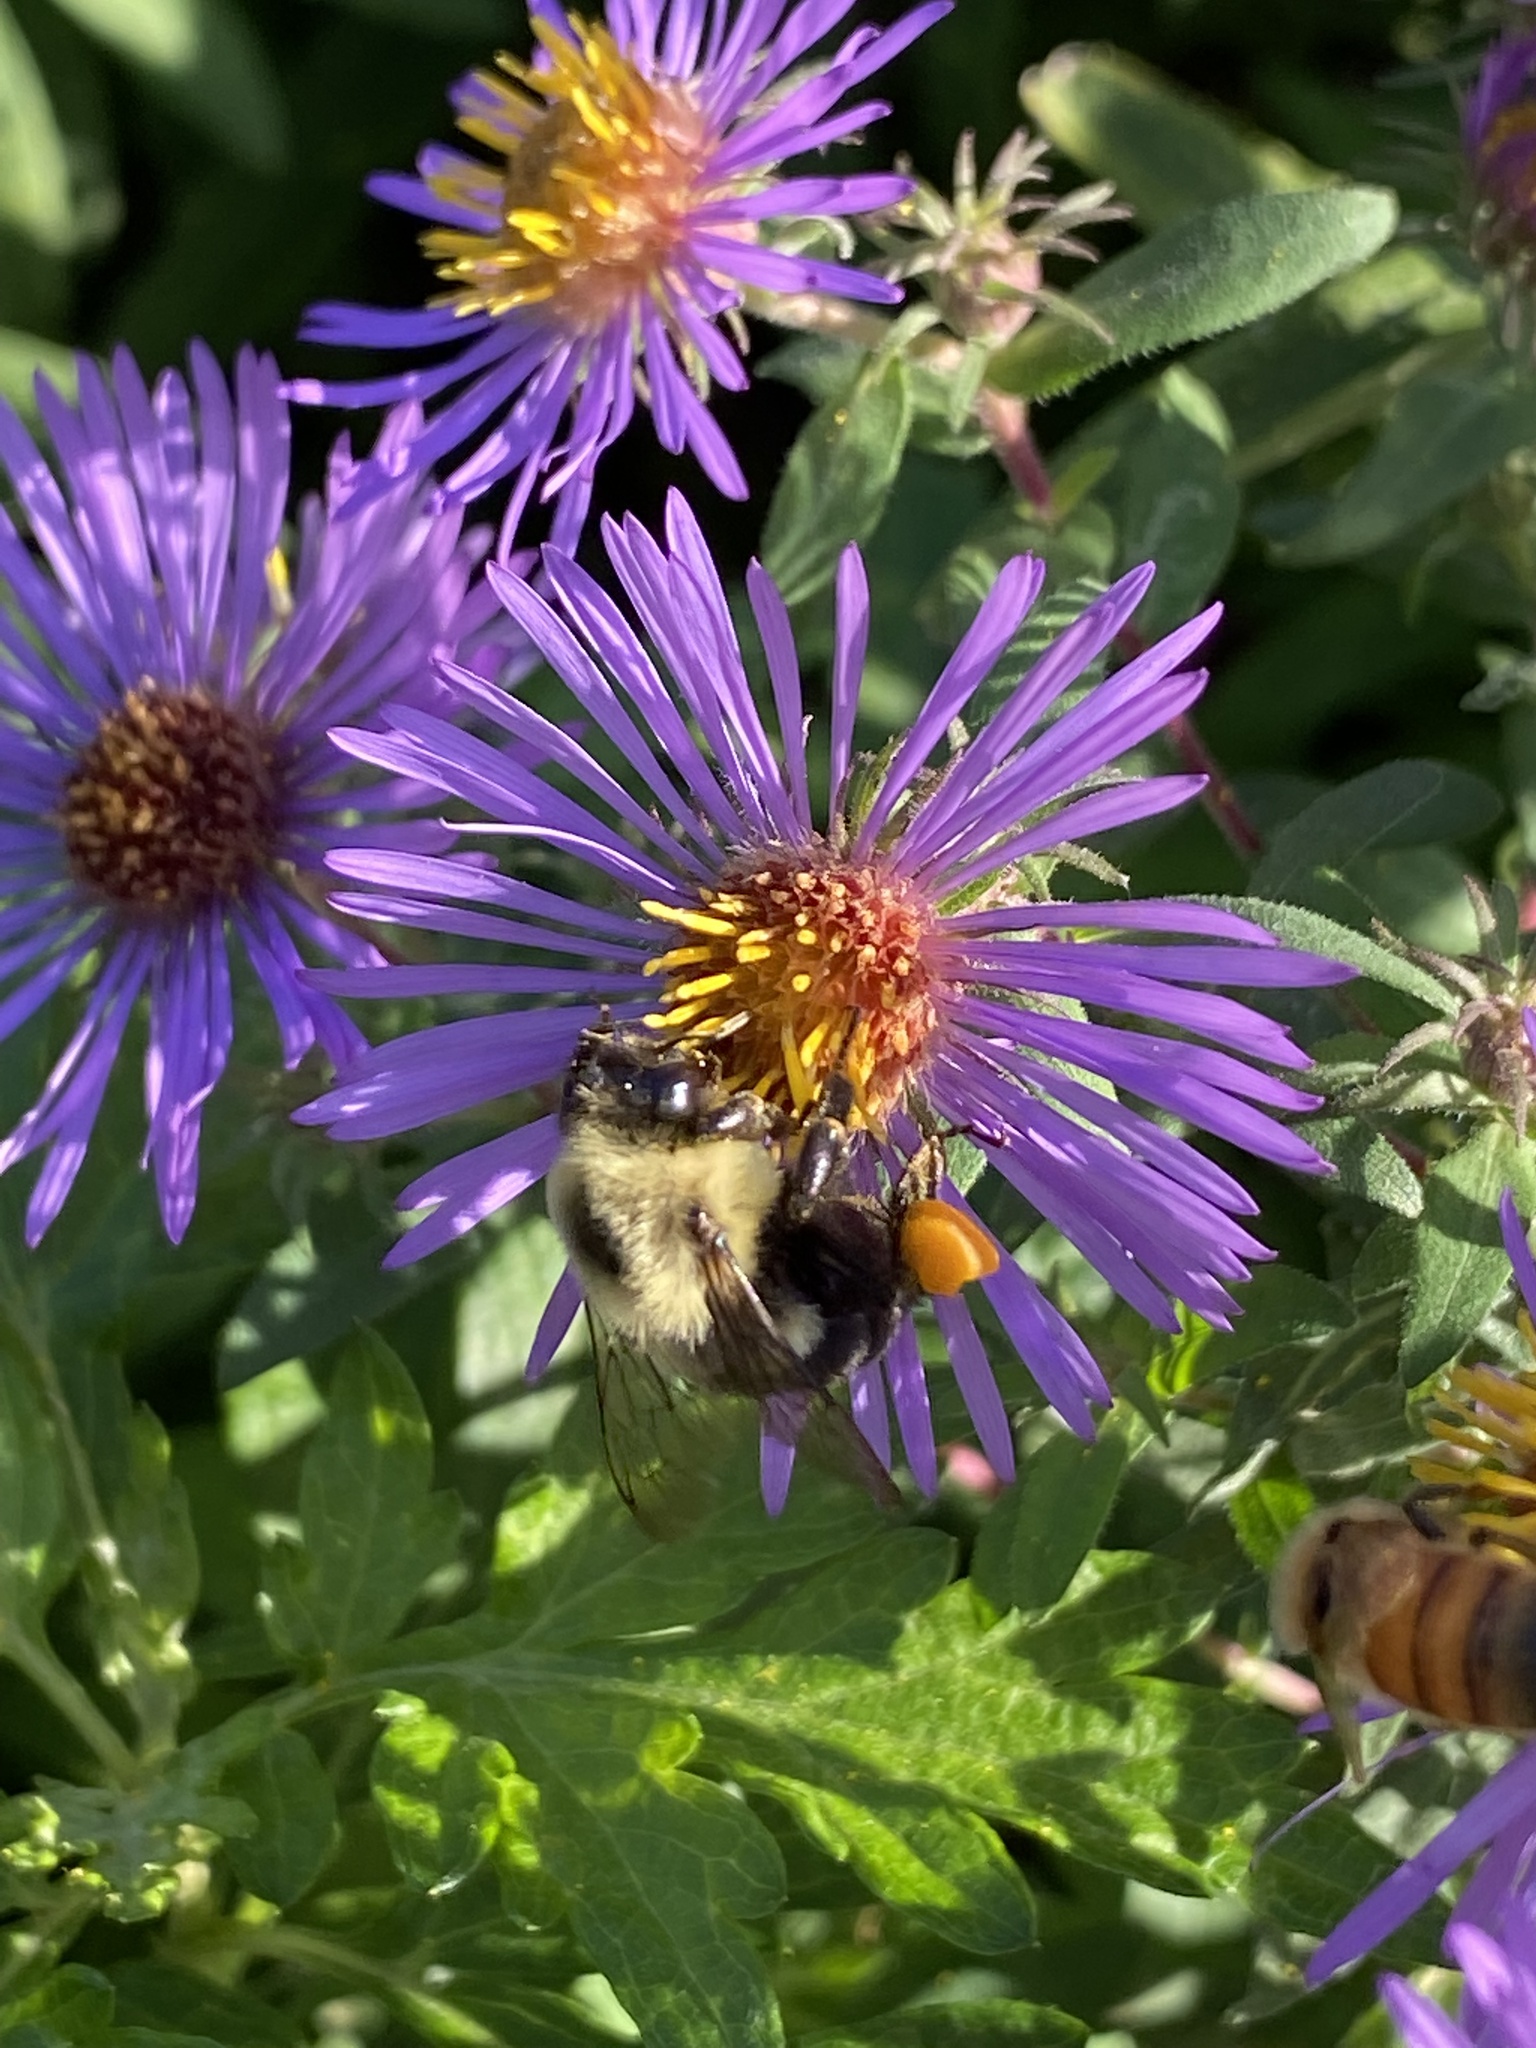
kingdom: Animalia
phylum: Arthropoda
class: Insecta
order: Hymenoptera
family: Apidae
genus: Bombus
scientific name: Bombus impatiens
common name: Common eastern bumble bee
